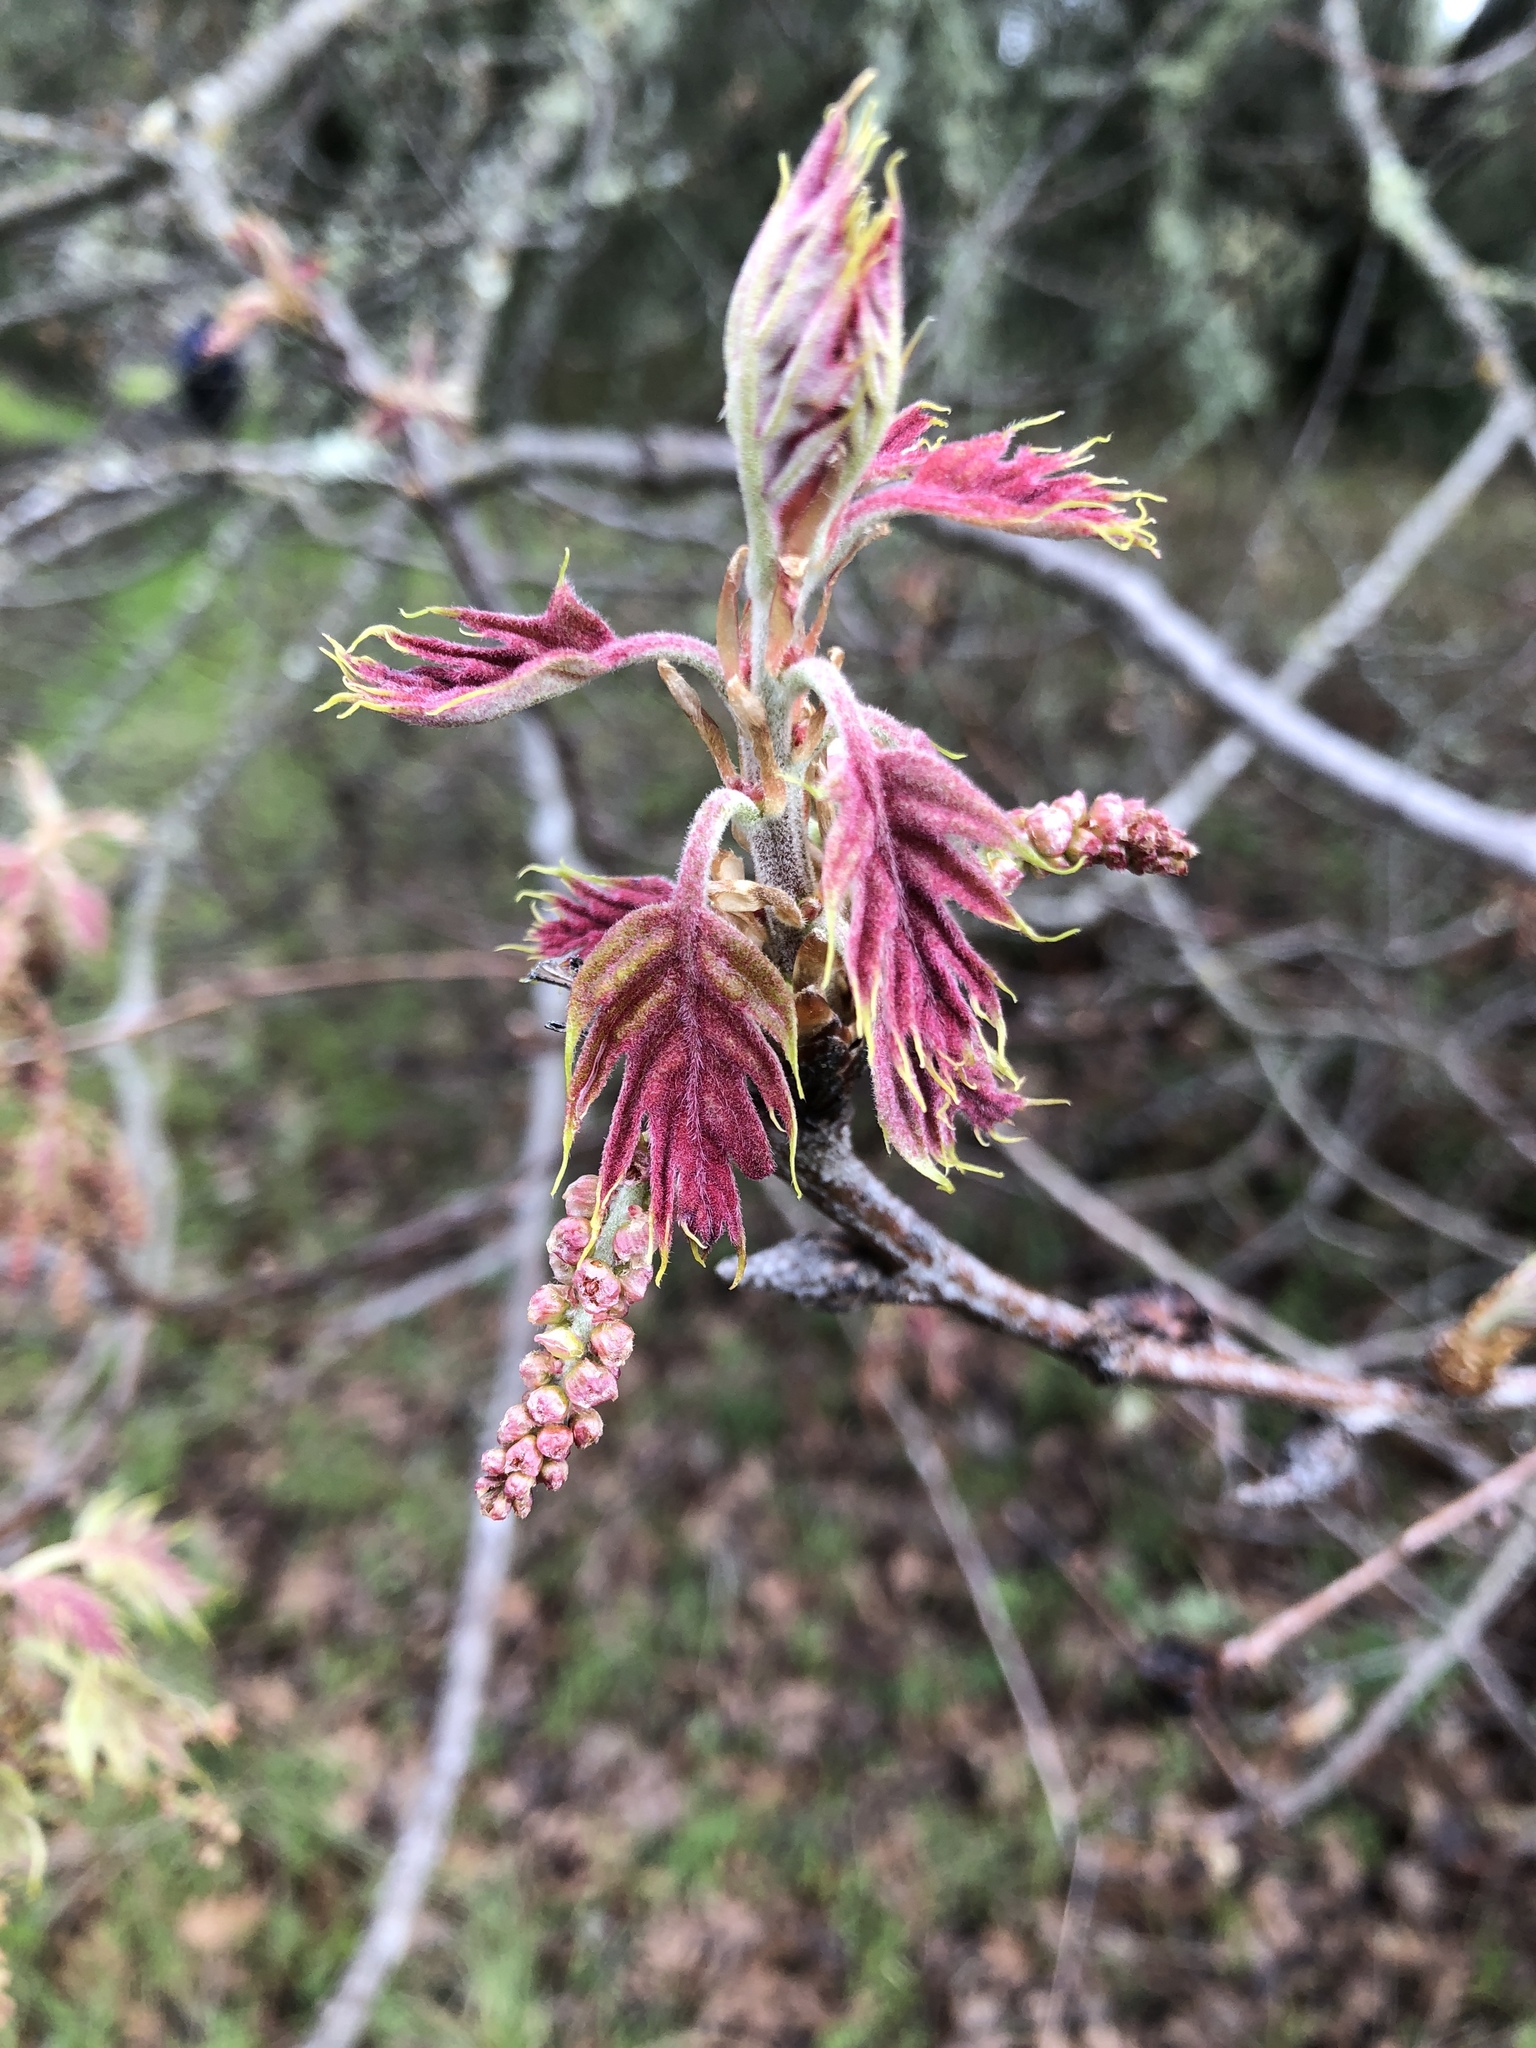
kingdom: Plantae
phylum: Tracheophyta
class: Magnoliopsida
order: Fagales
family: Fagaceae
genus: Quercus
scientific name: Quercus kelloggii
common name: California black oak
